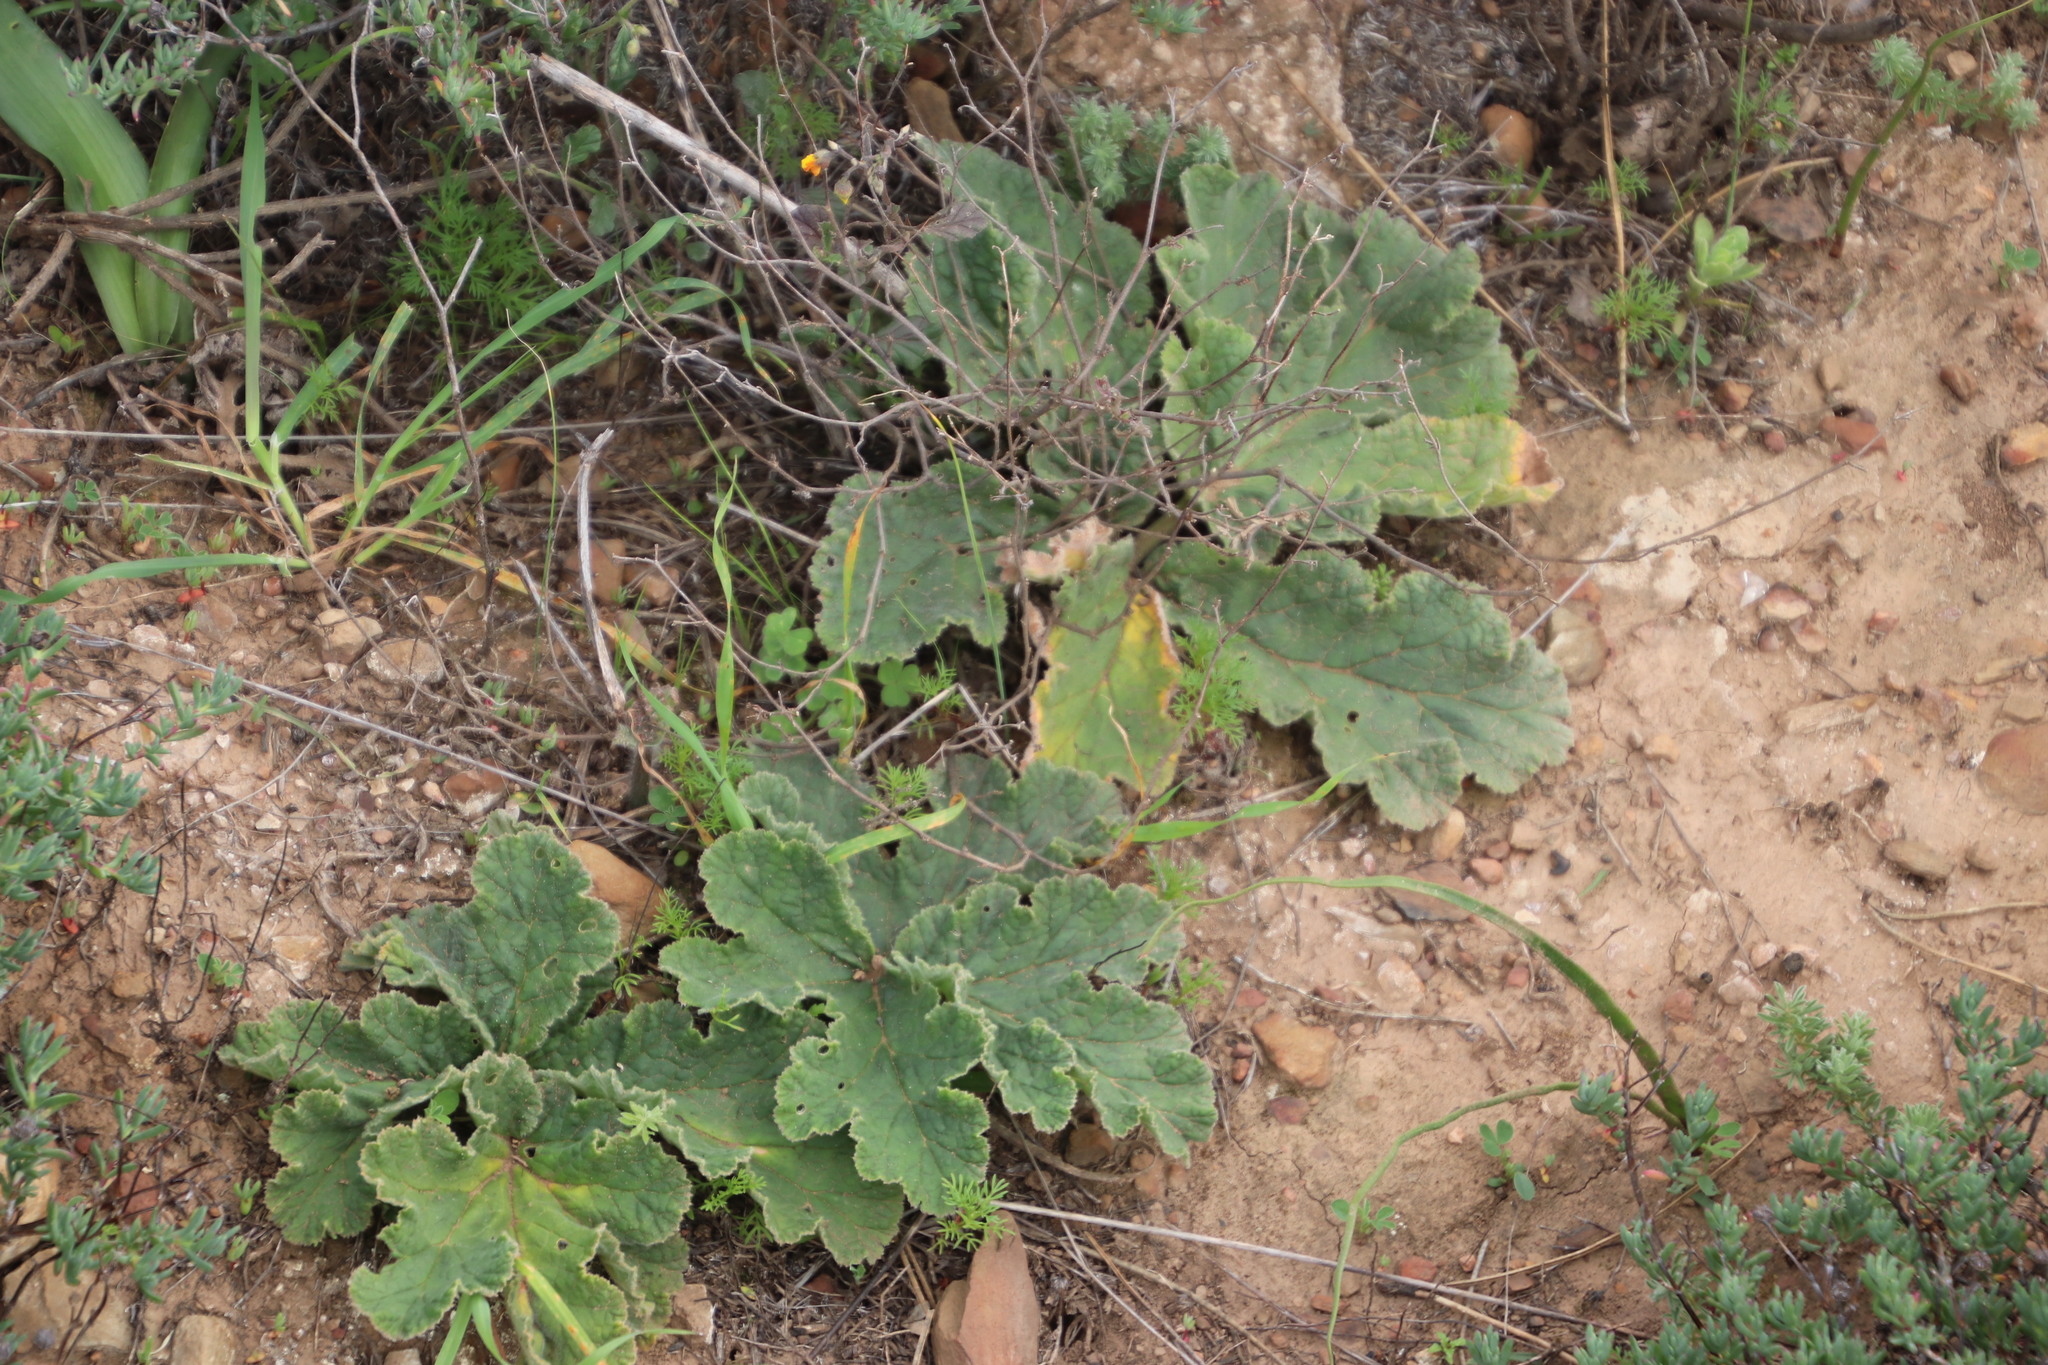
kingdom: Plantae
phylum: Tracheophyta
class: Magnoliopsida
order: Geraniales
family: Geraniaceae
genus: Pelargonium
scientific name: Pelargonium lobatum
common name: Vine-leaf pelargonium
